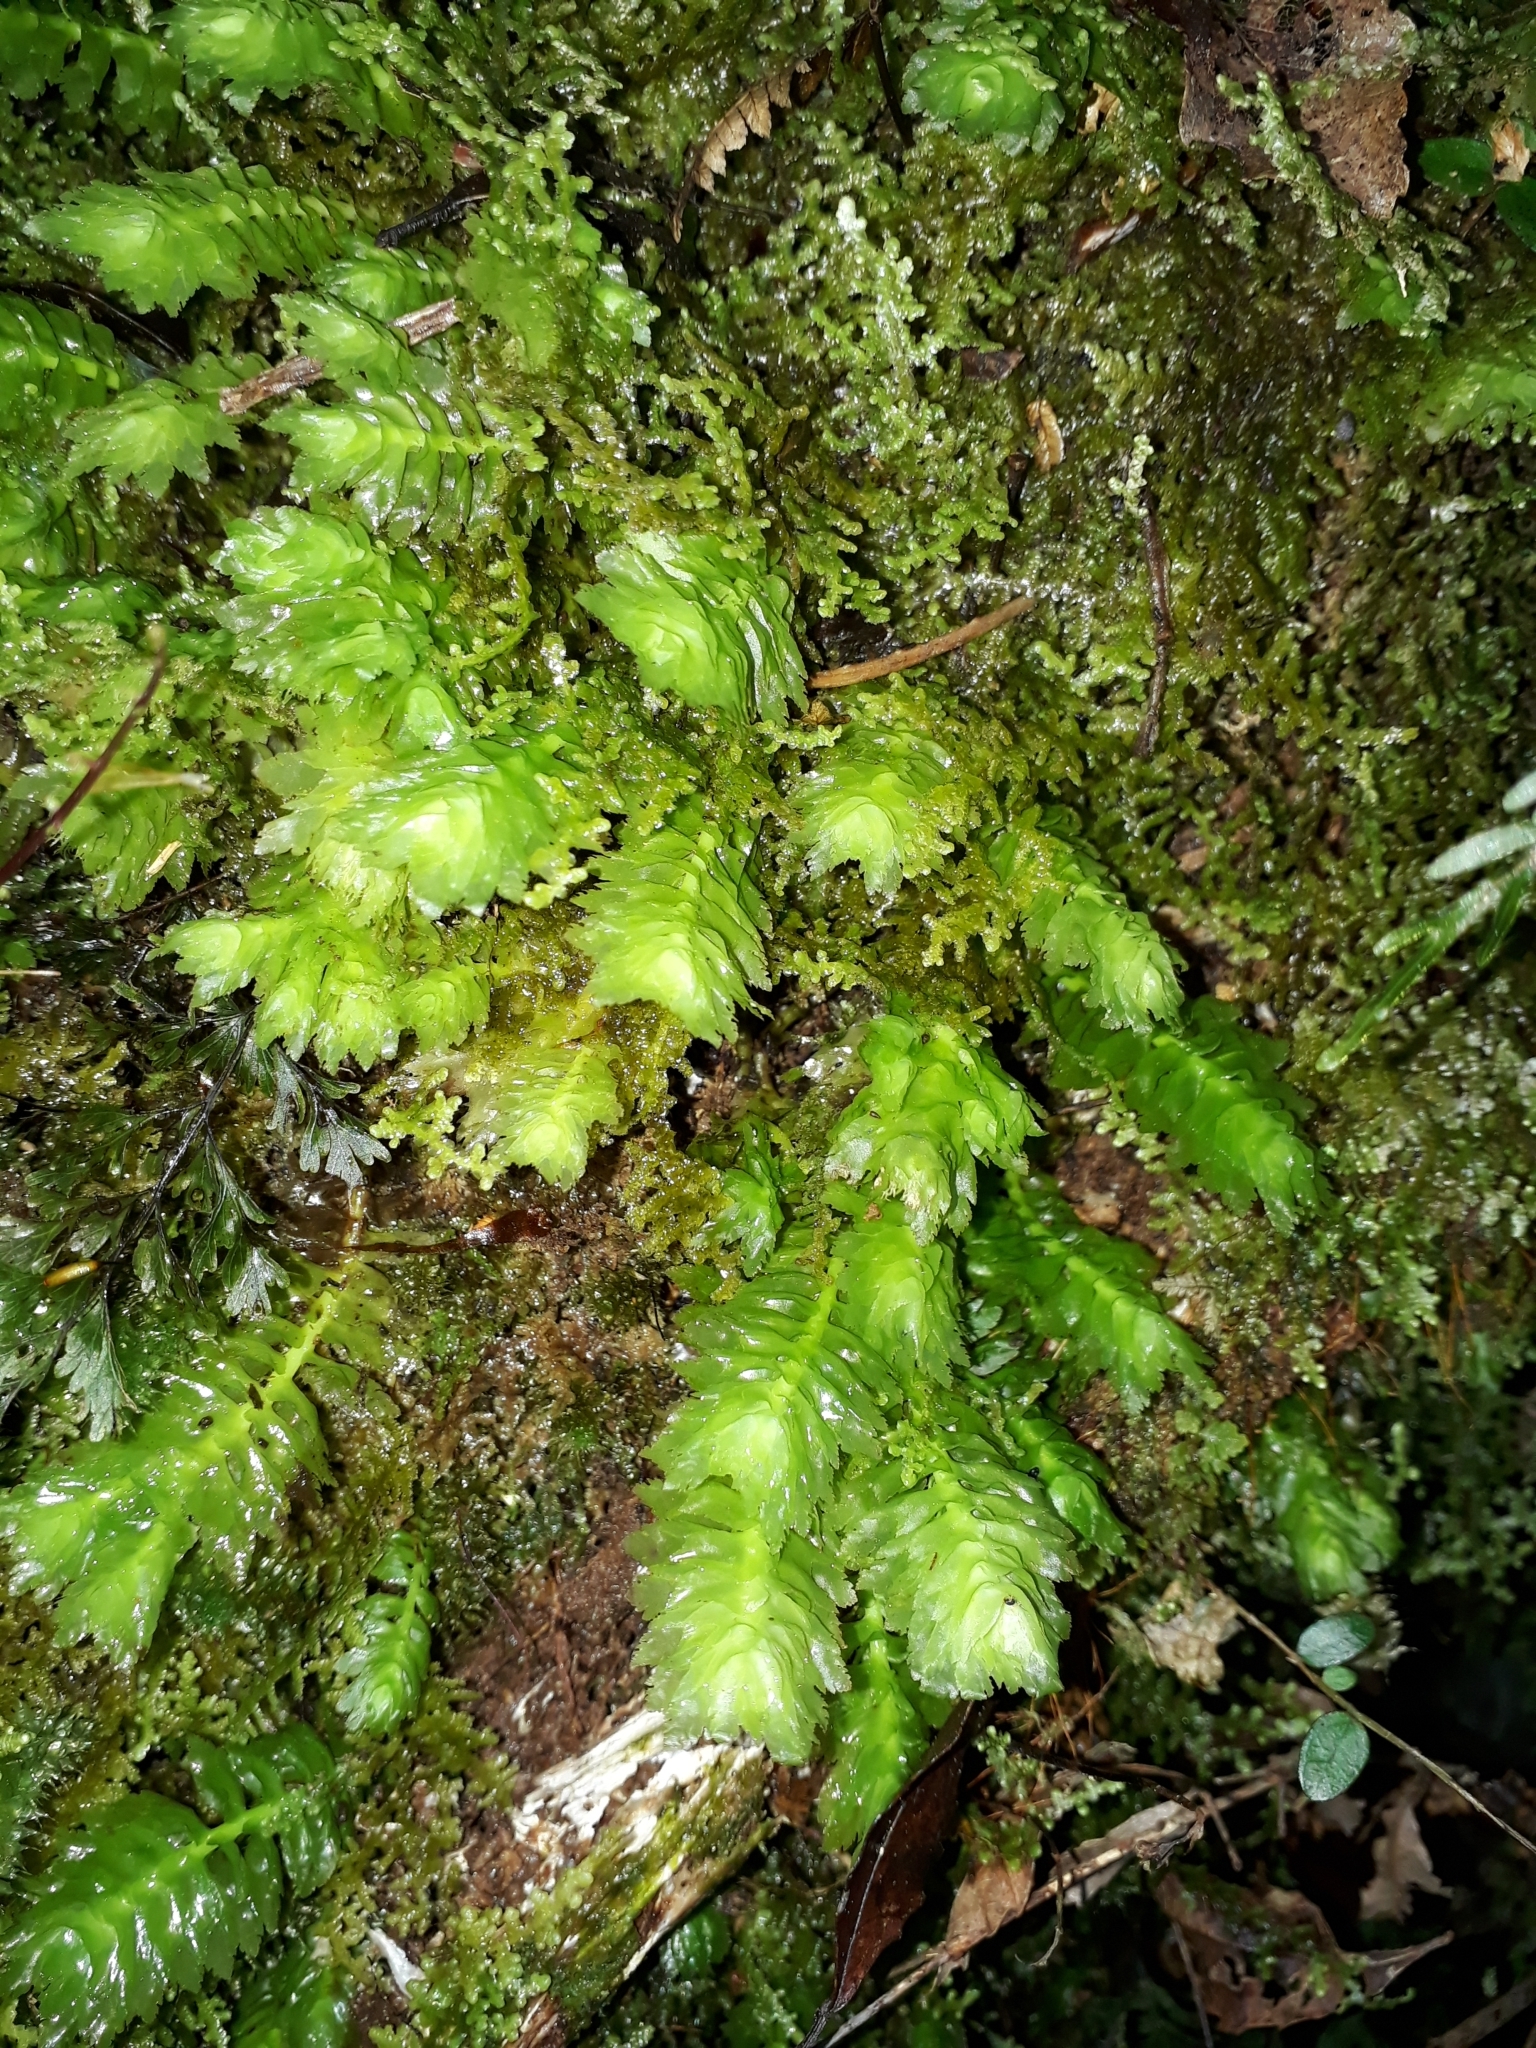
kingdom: Plantae
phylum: Marchantiophyta
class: Jungermanniopsida
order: Jungermanniales
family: Schistochilaceae
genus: Schistochila
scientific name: Schistochila appendiculata
